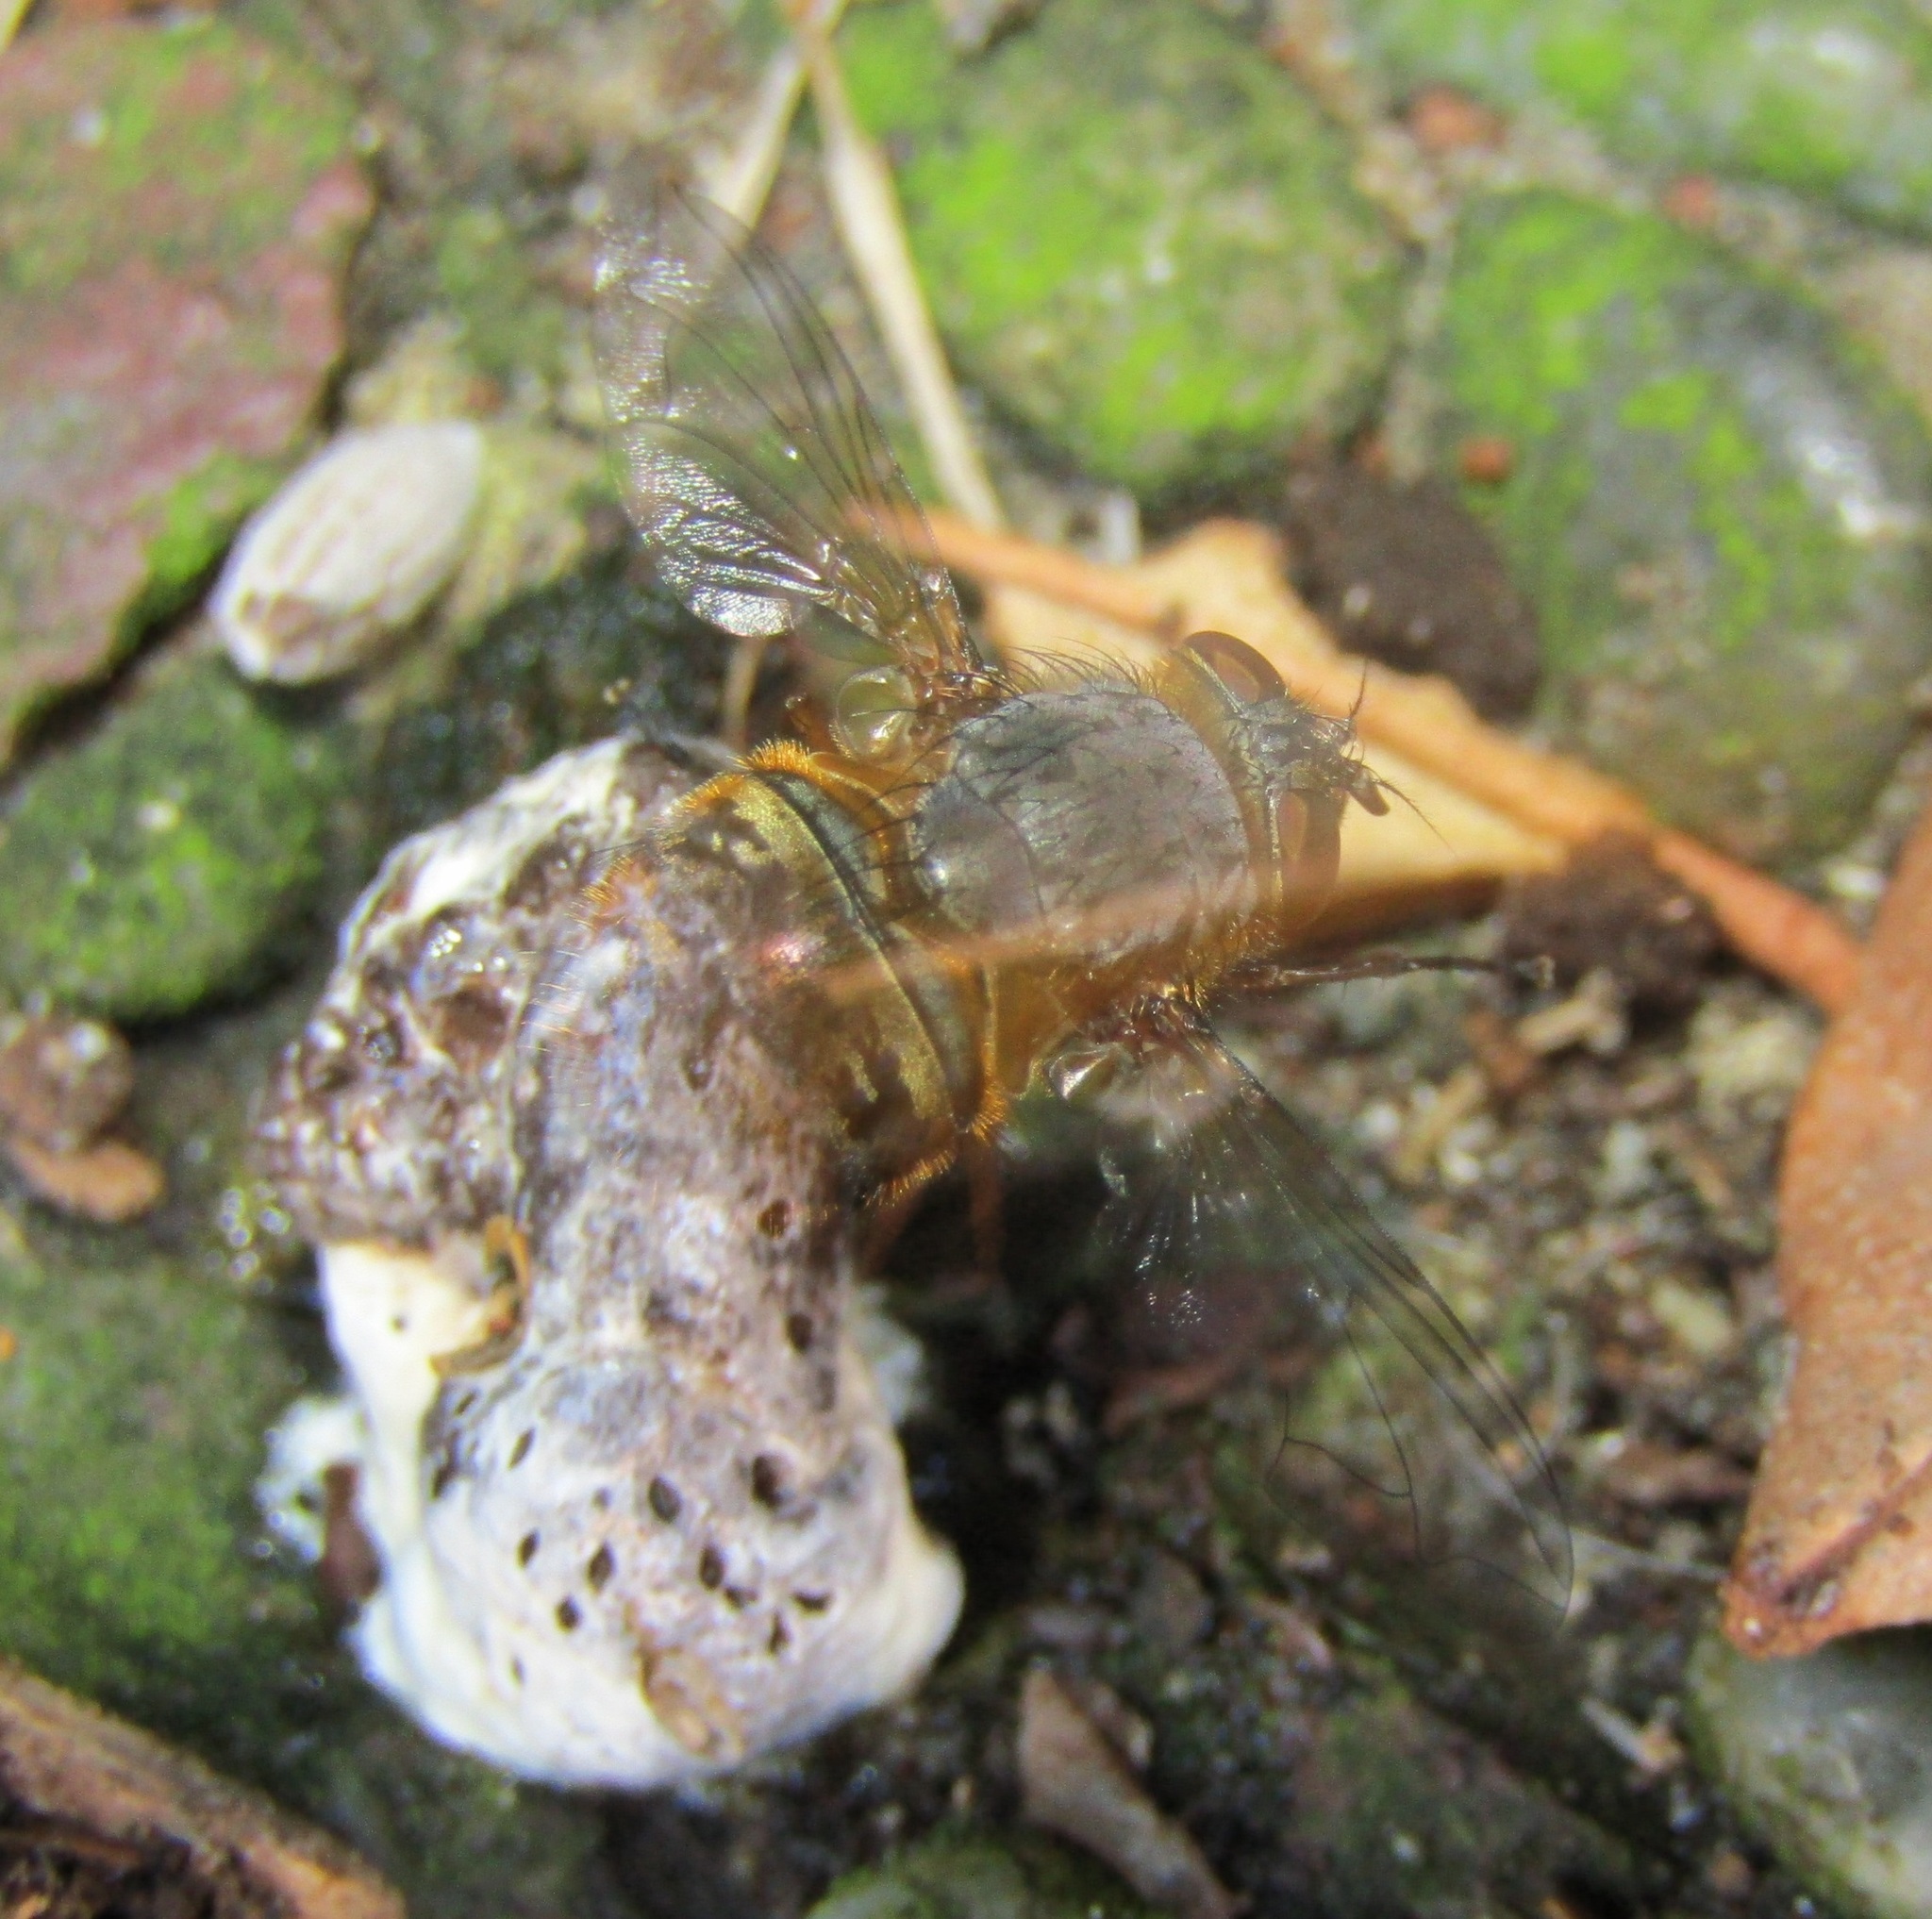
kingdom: Animalia
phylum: Arthropoda
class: Insecta
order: Diptera
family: Calliphoridae
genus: Calliphora
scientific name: Calliphora hilli
